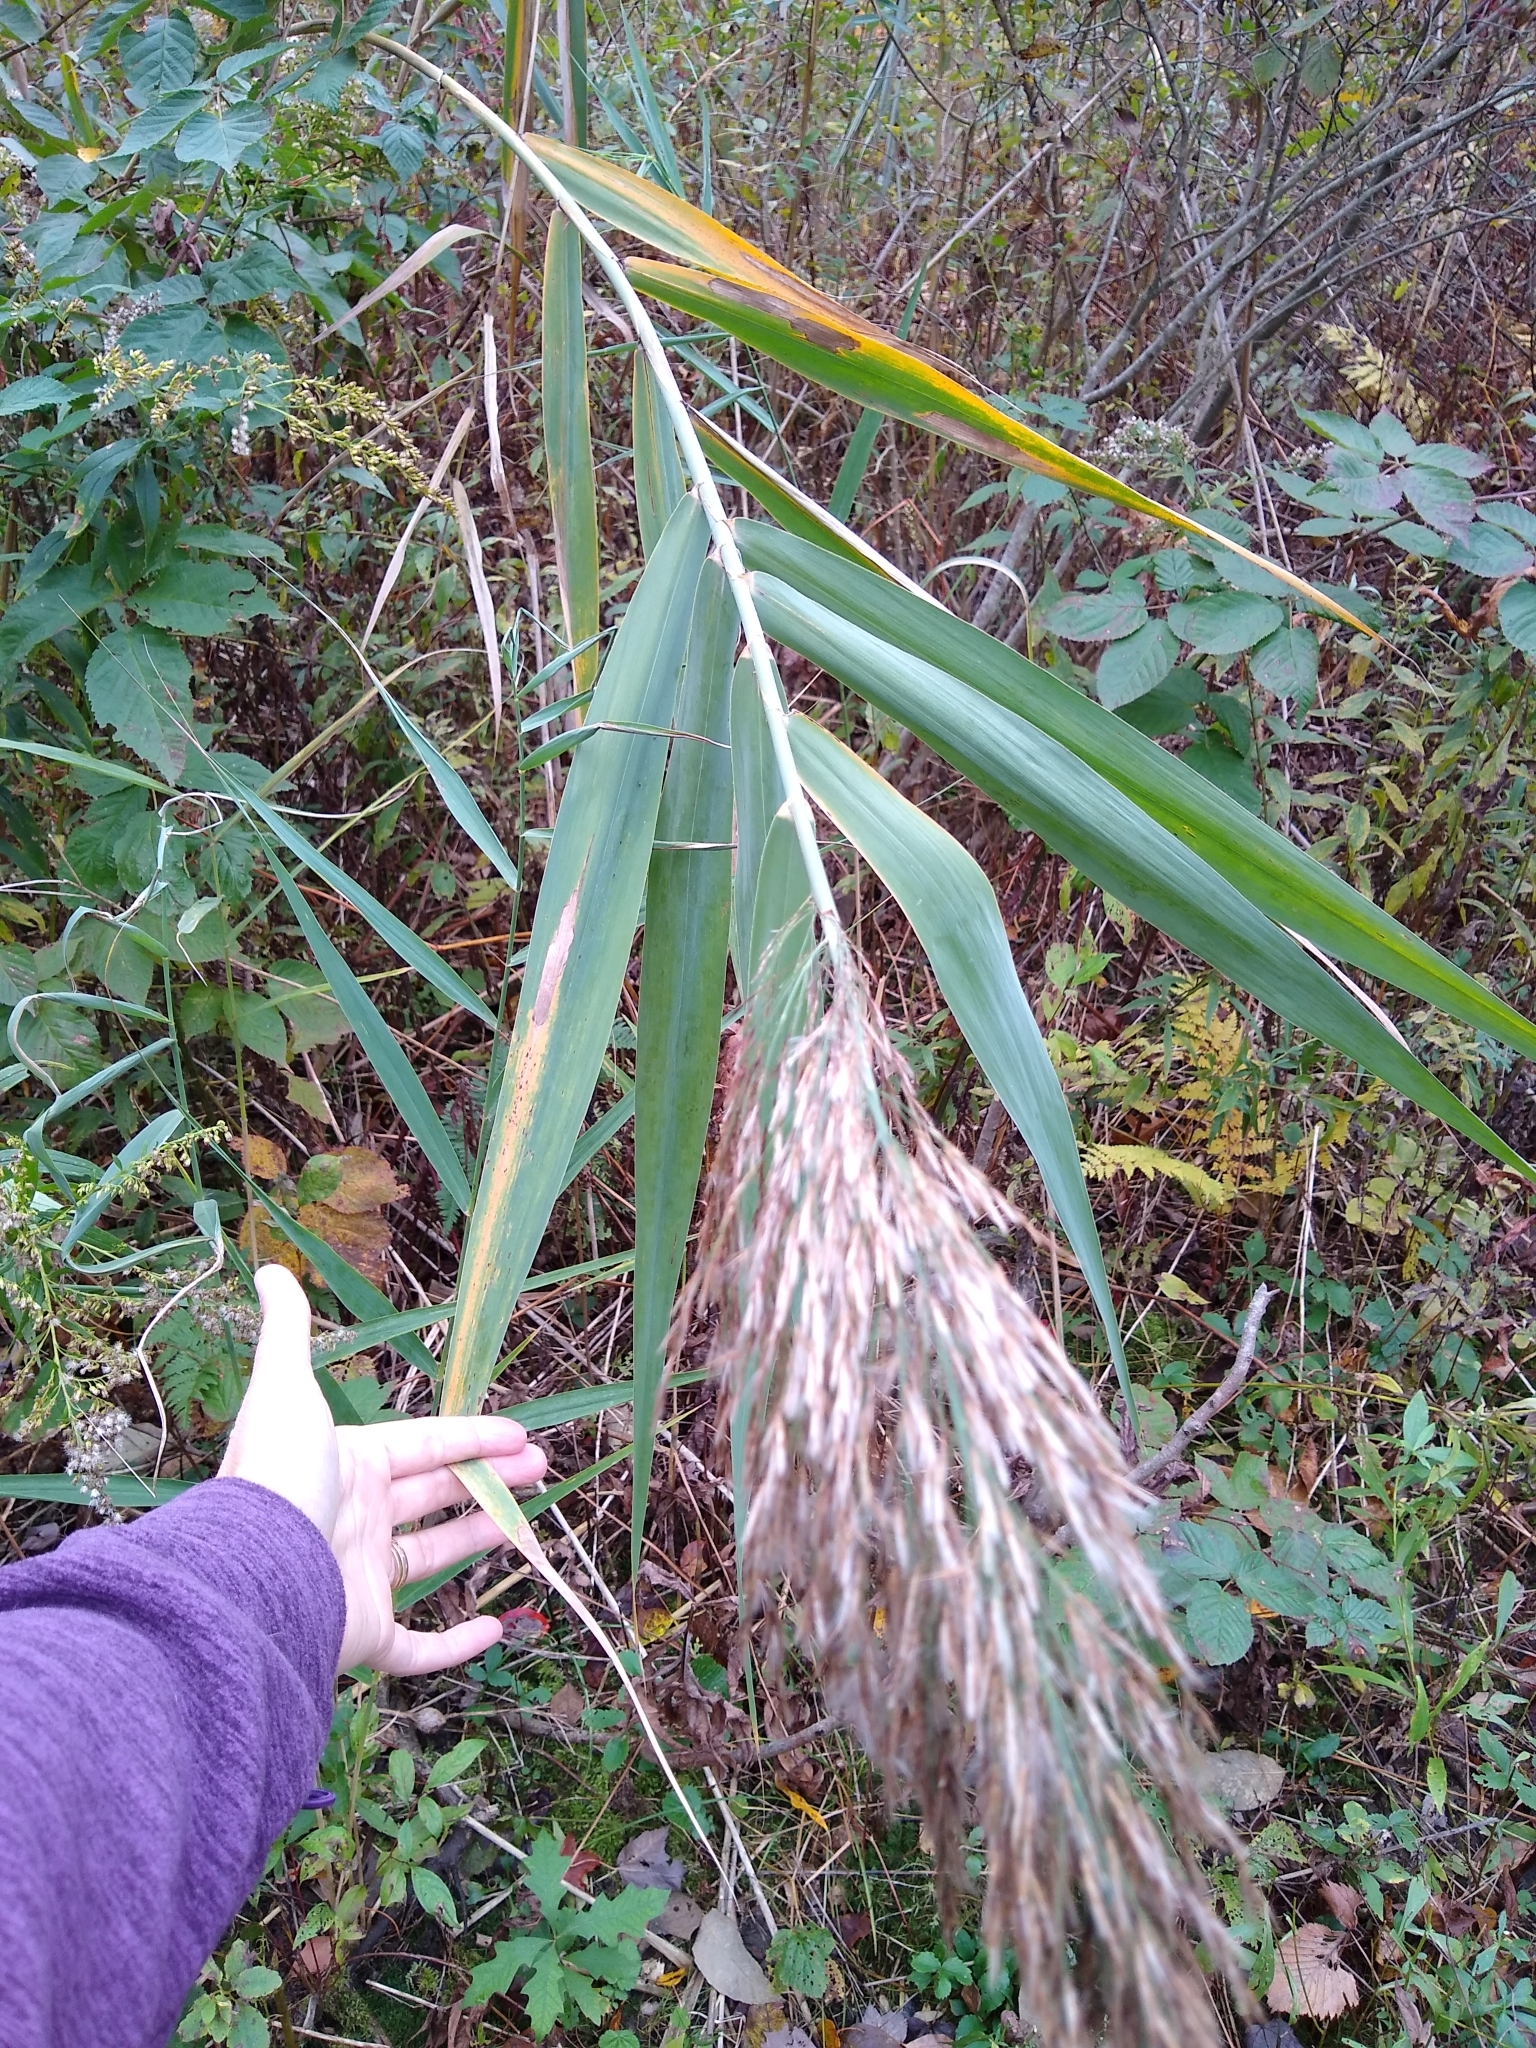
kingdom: Plantae
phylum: Tracheophyta
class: Liliopsida
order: Poales
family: Poaceae
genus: Phragmites
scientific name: Phragmites australis
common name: Common reed
